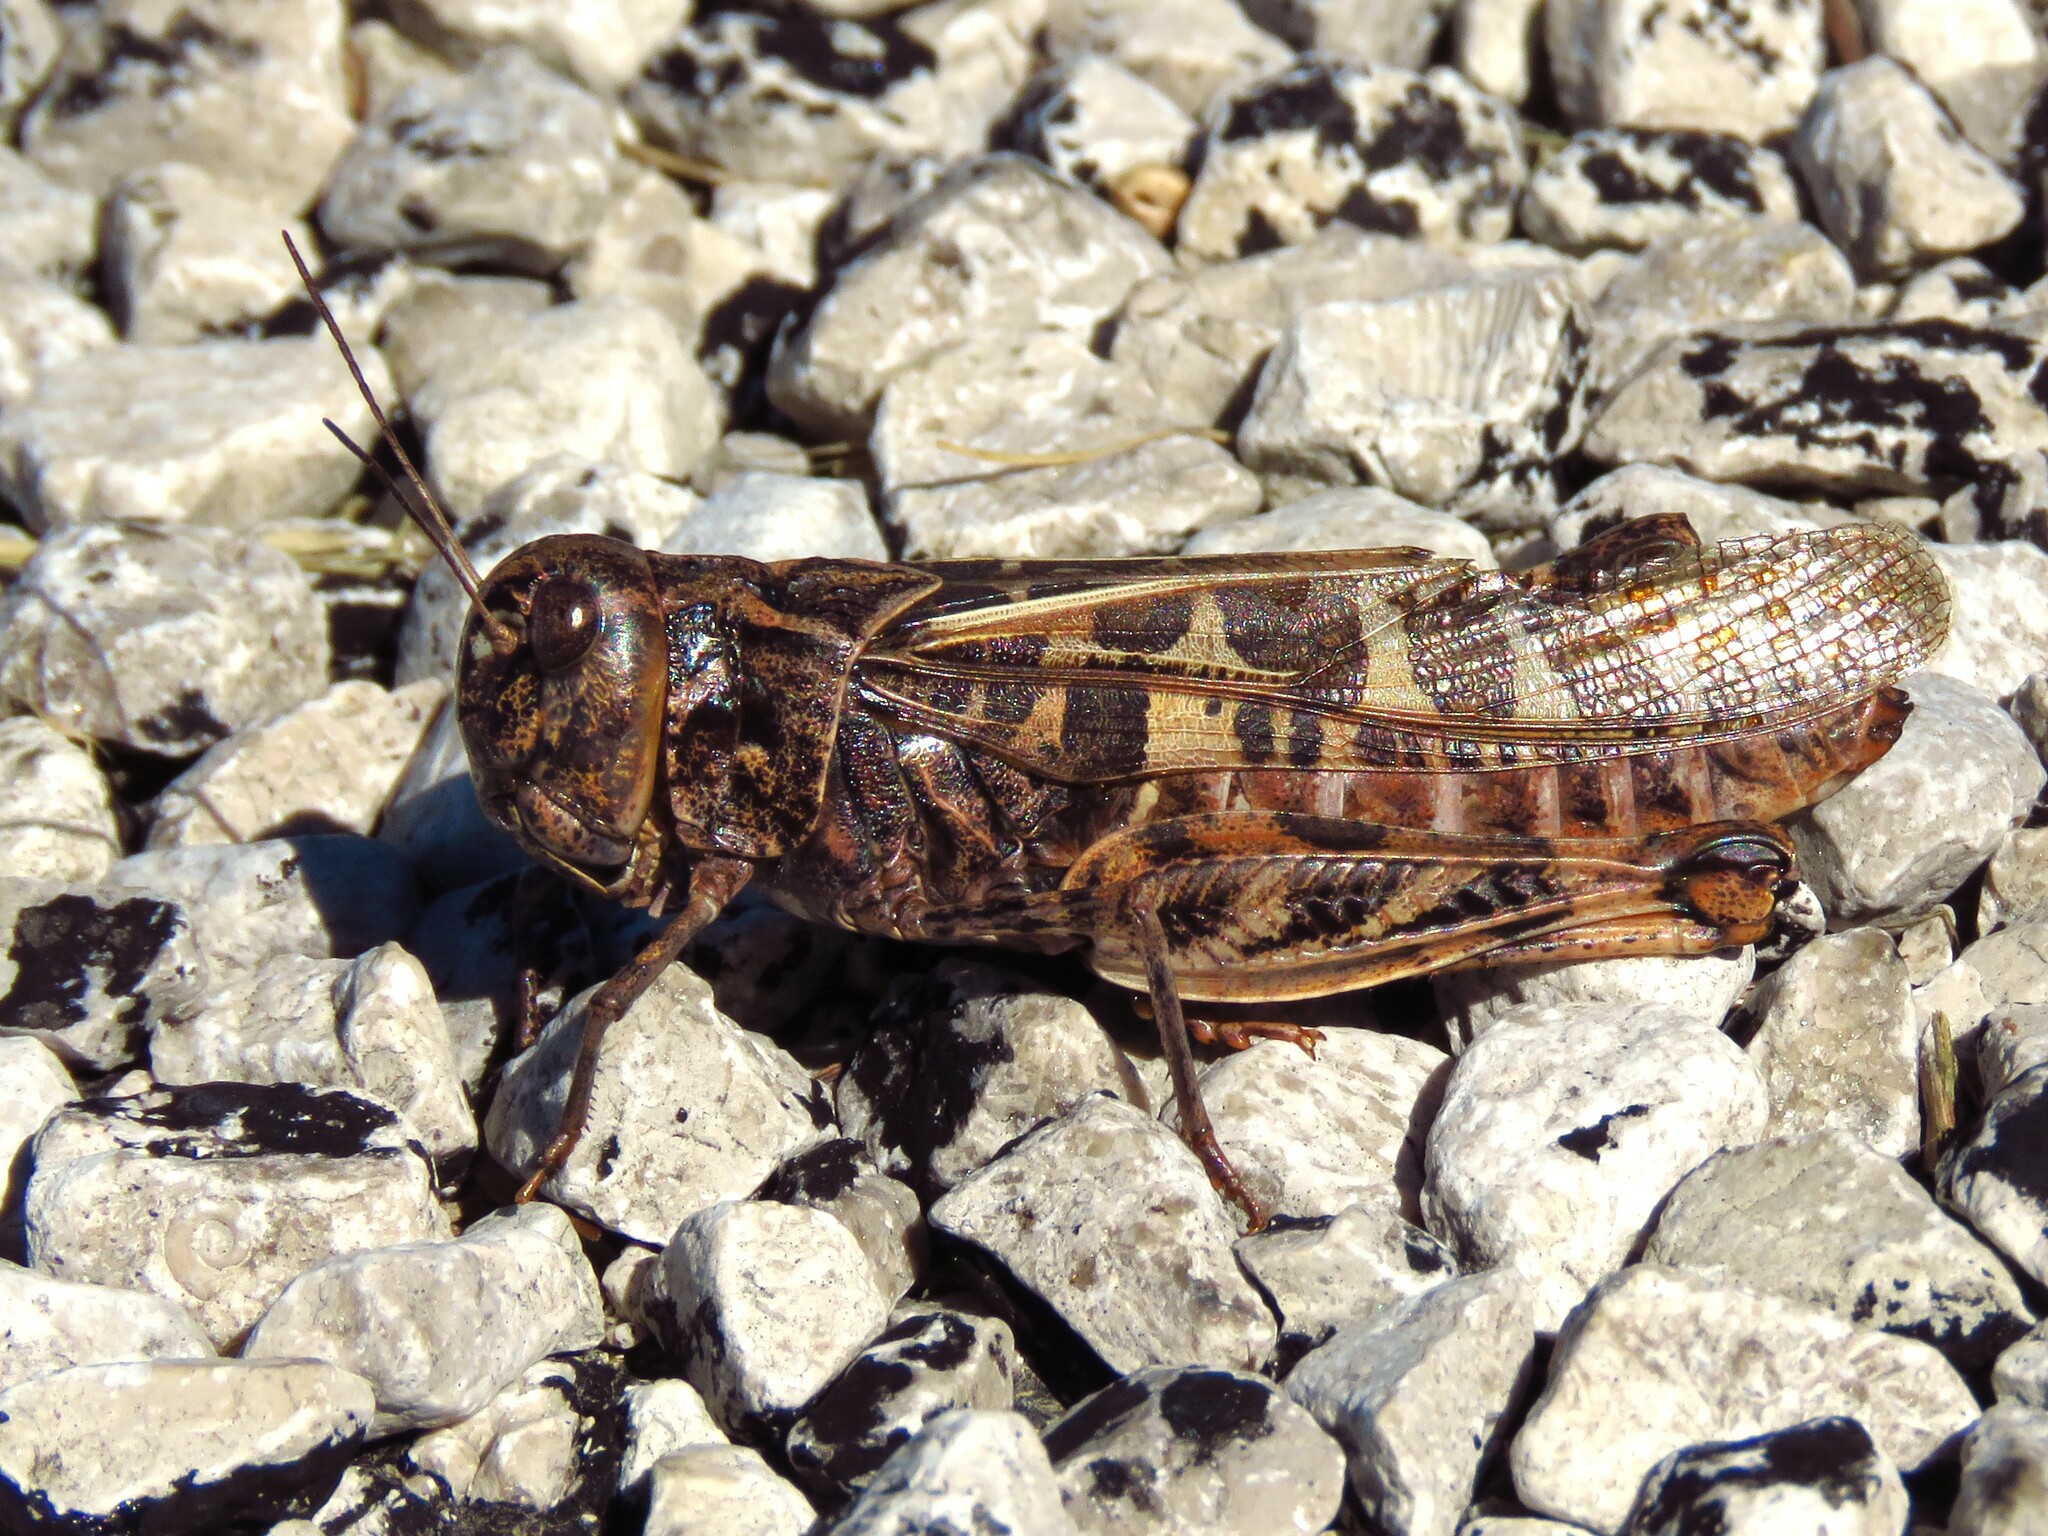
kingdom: Animalia
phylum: Arthropoda
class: Insecta
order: Orthoptera
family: Acrididae
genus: Hippiscus
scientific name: Hippiscus ocelote
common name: Wrinkled grasshopper
